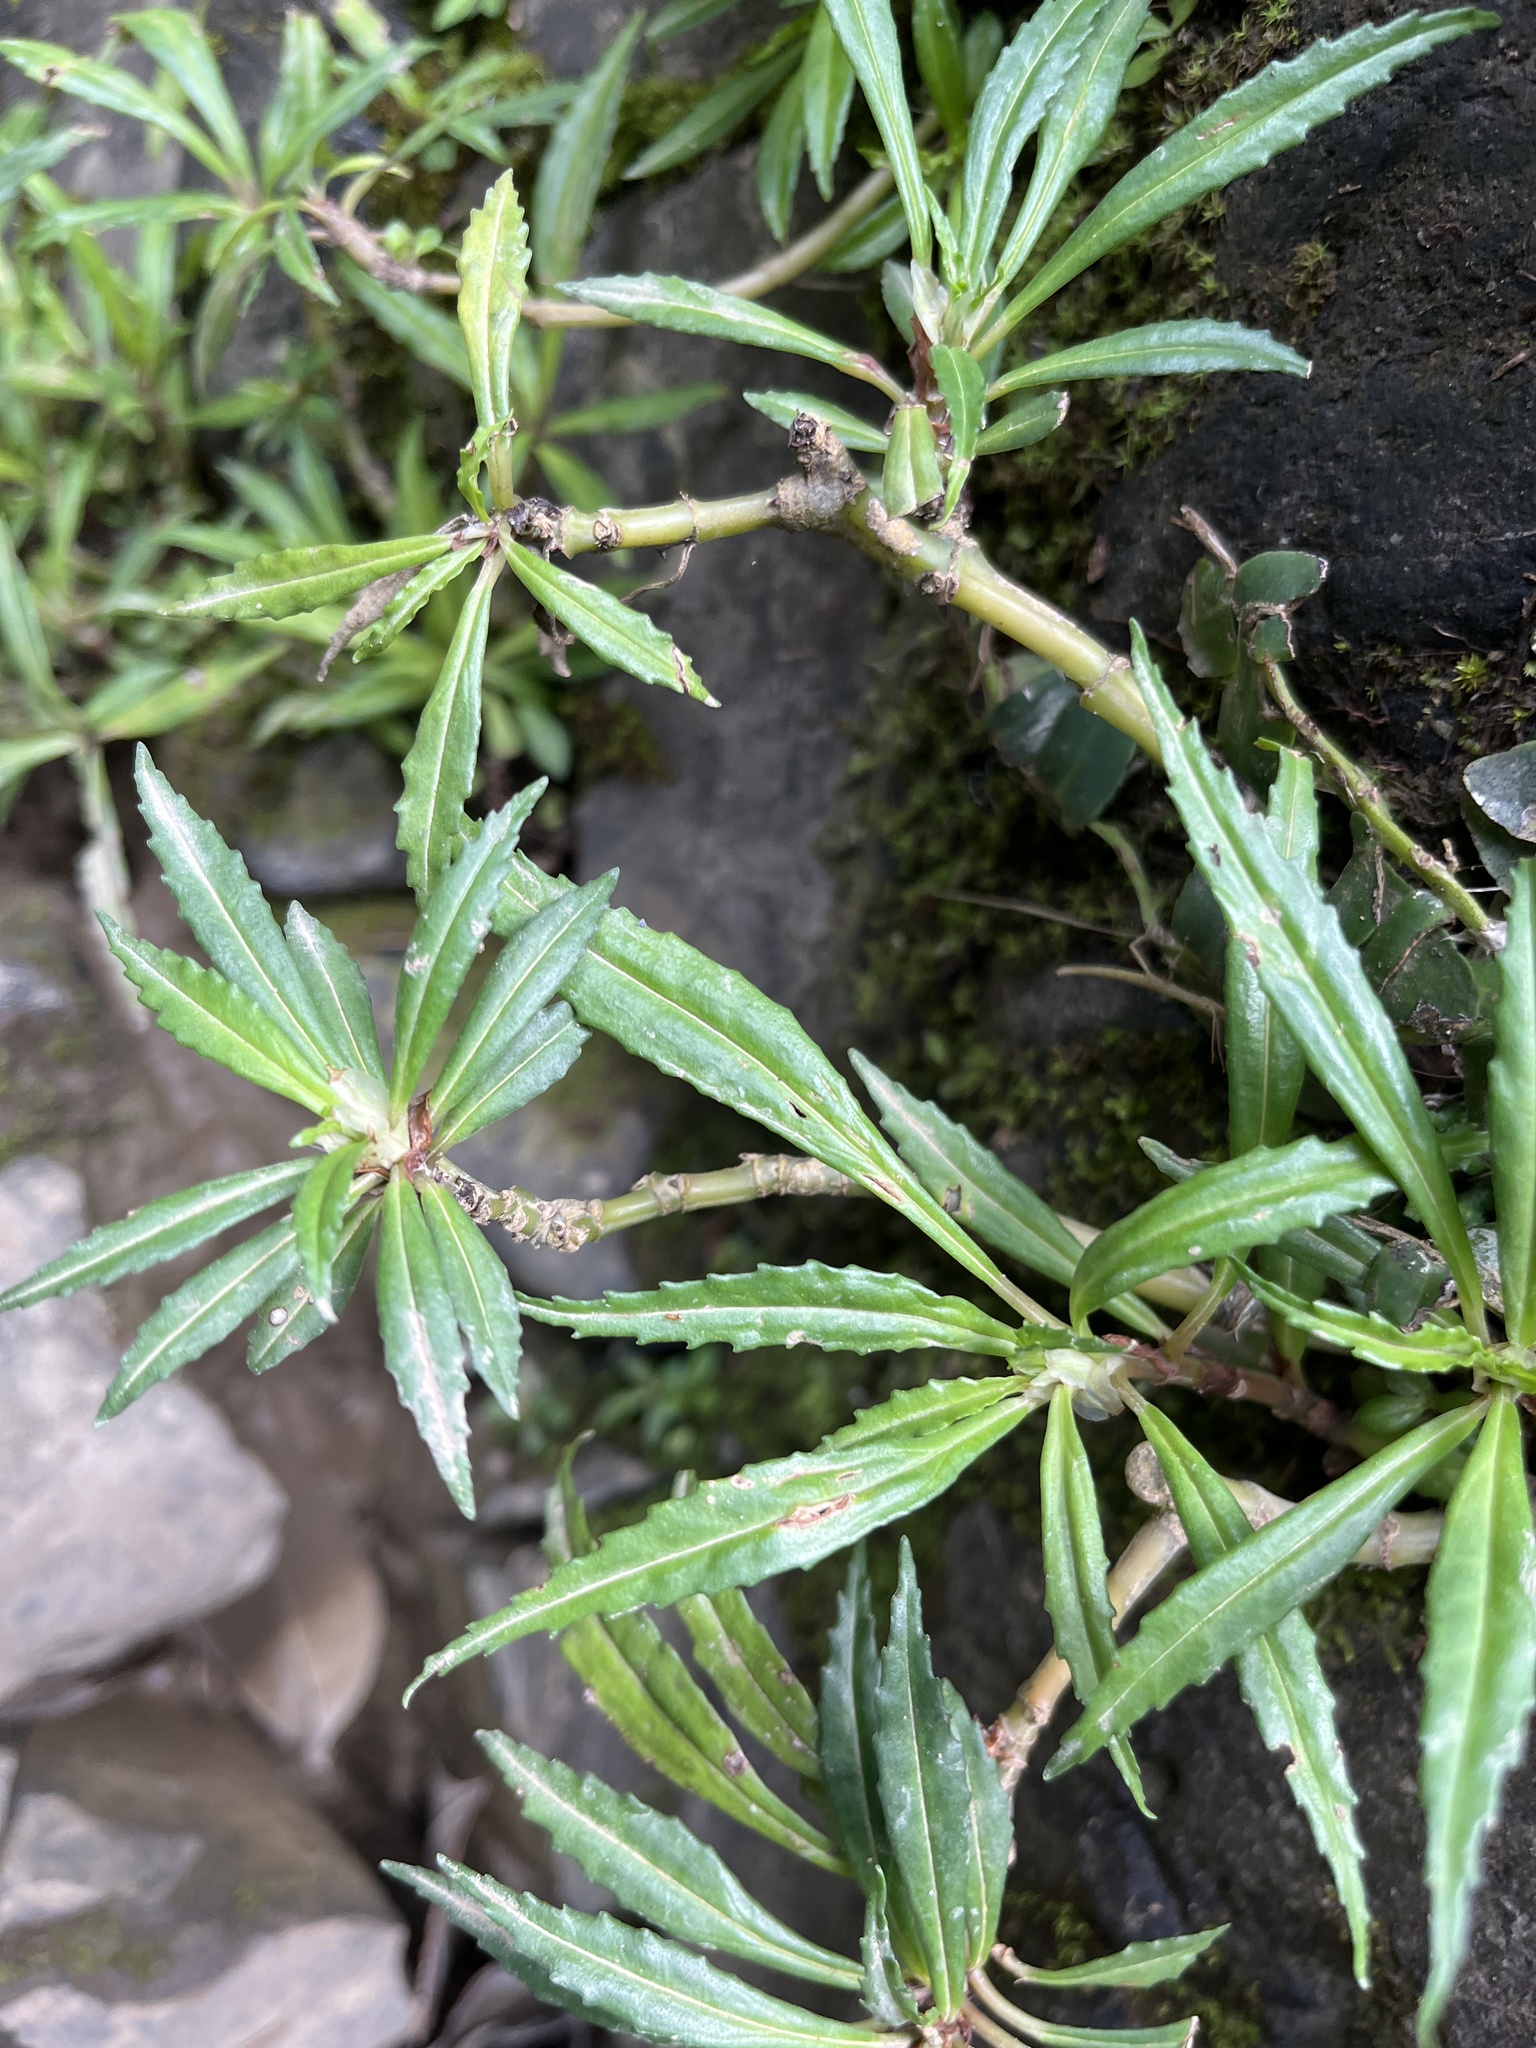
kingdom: Plantae
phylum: Tracheophyta
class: Magnoliopsida
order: Rosales
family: Urticaceae
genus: Pilea
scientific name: Pilea semidentata
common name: Cliffside clearweed
